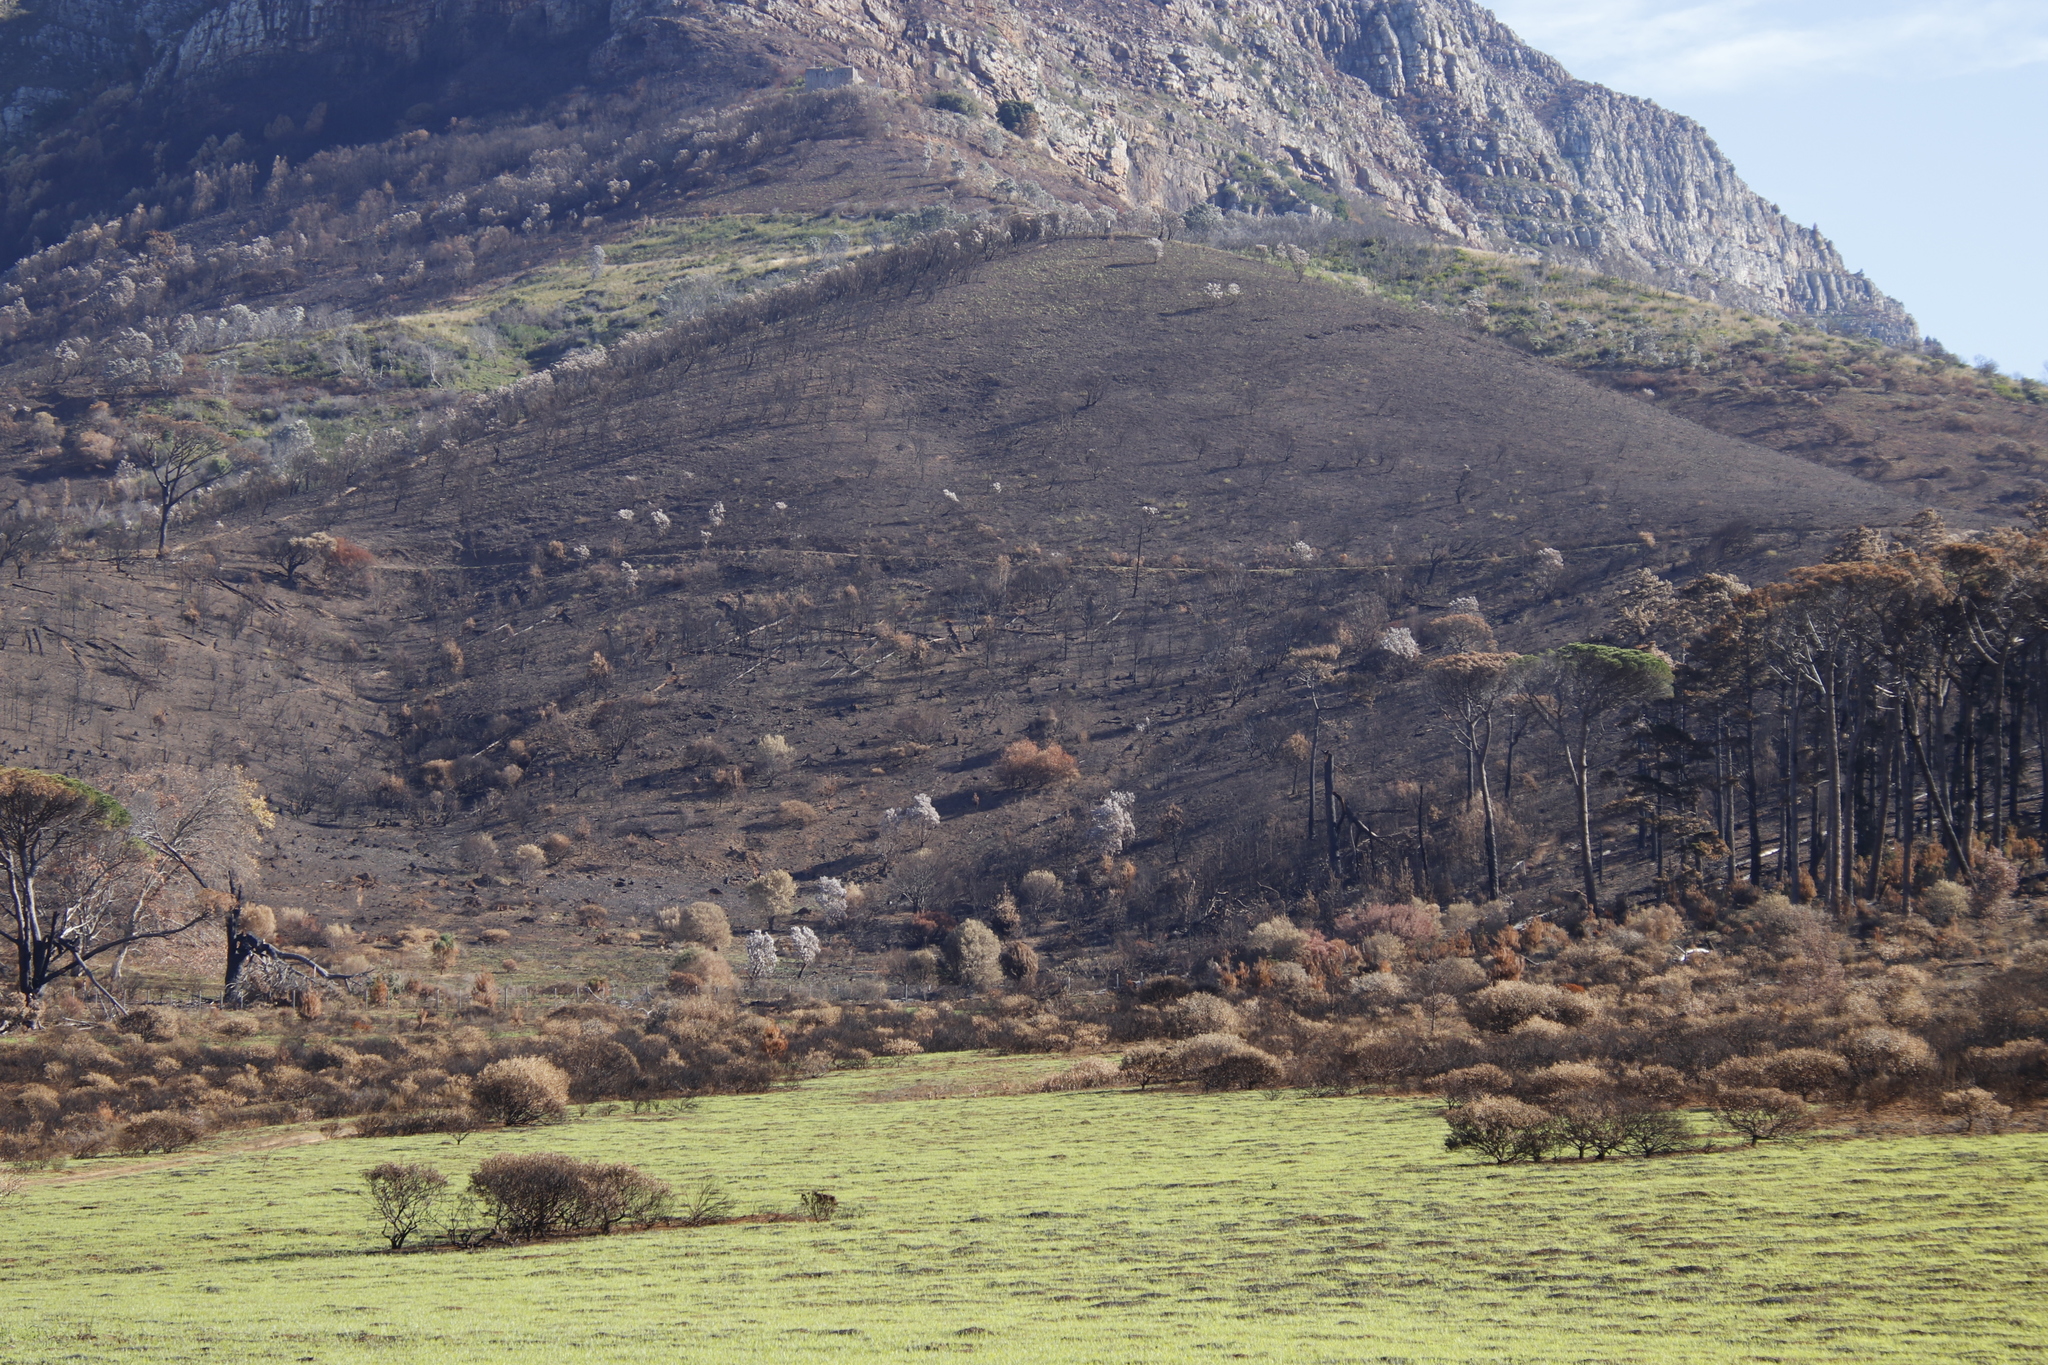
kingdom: Plantae
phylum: Tracheophyta
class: Magnoliopsida
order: Proteales
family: Proteaceae
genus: Leucadendron
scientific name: Leucadendron argenteum
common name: Cape silver tree
